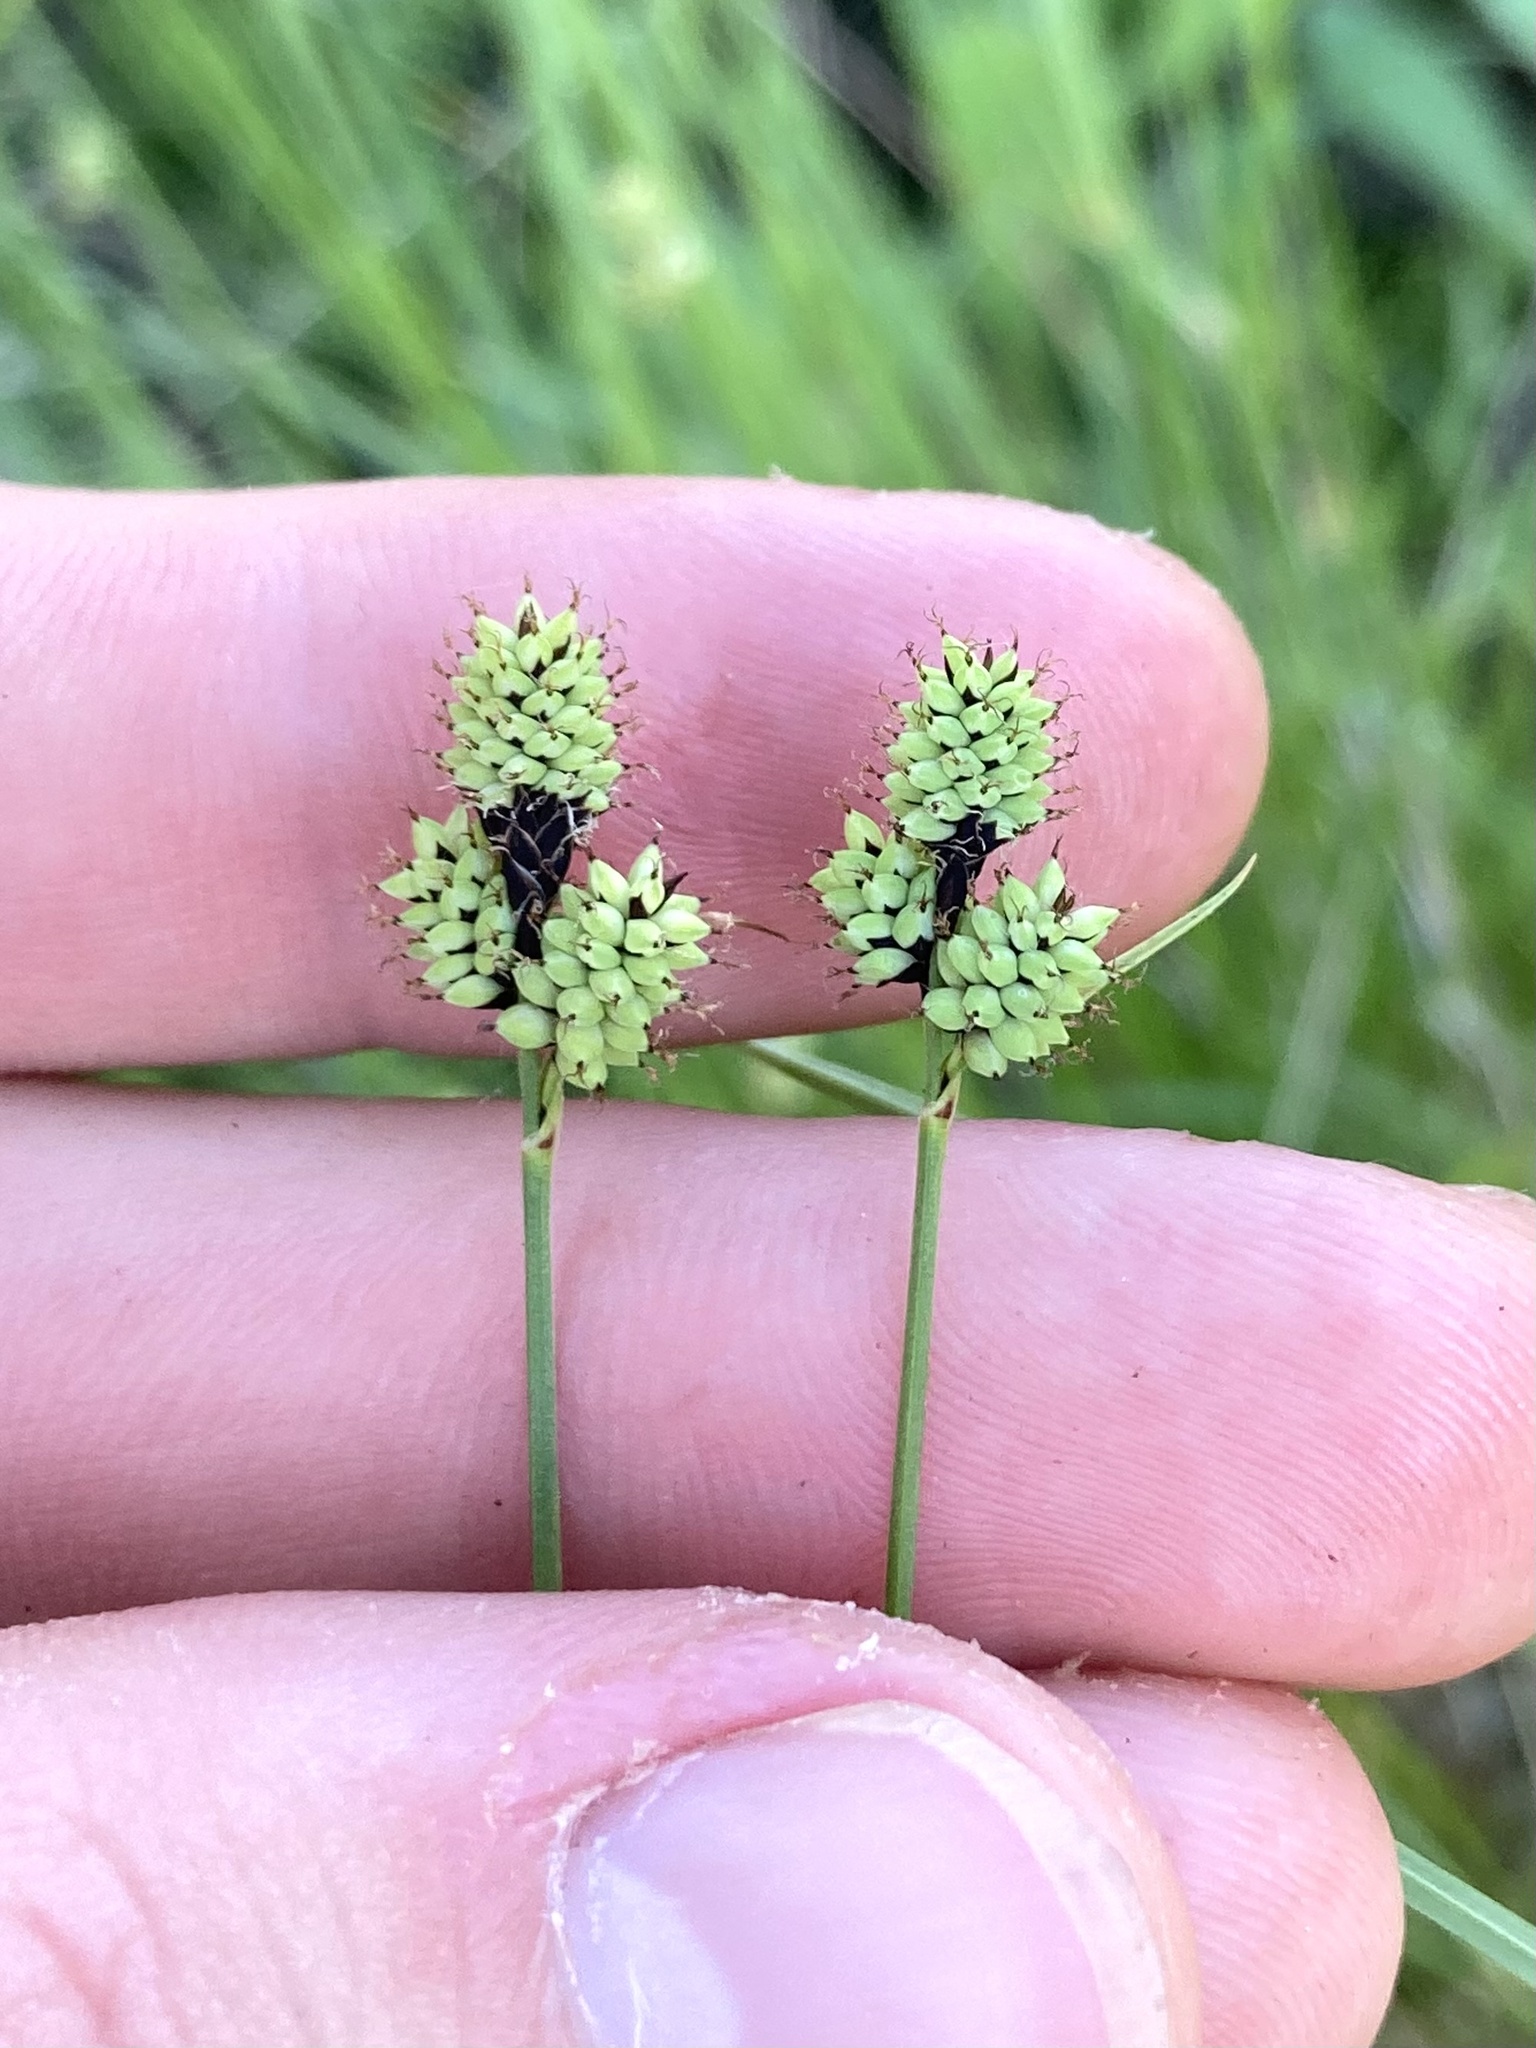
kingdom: Plantae
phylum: Tracheophyta
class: Liliopsida
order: Poales
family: Cyperaceae
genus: Carex
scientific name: Carex media
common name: Alpine sedge
